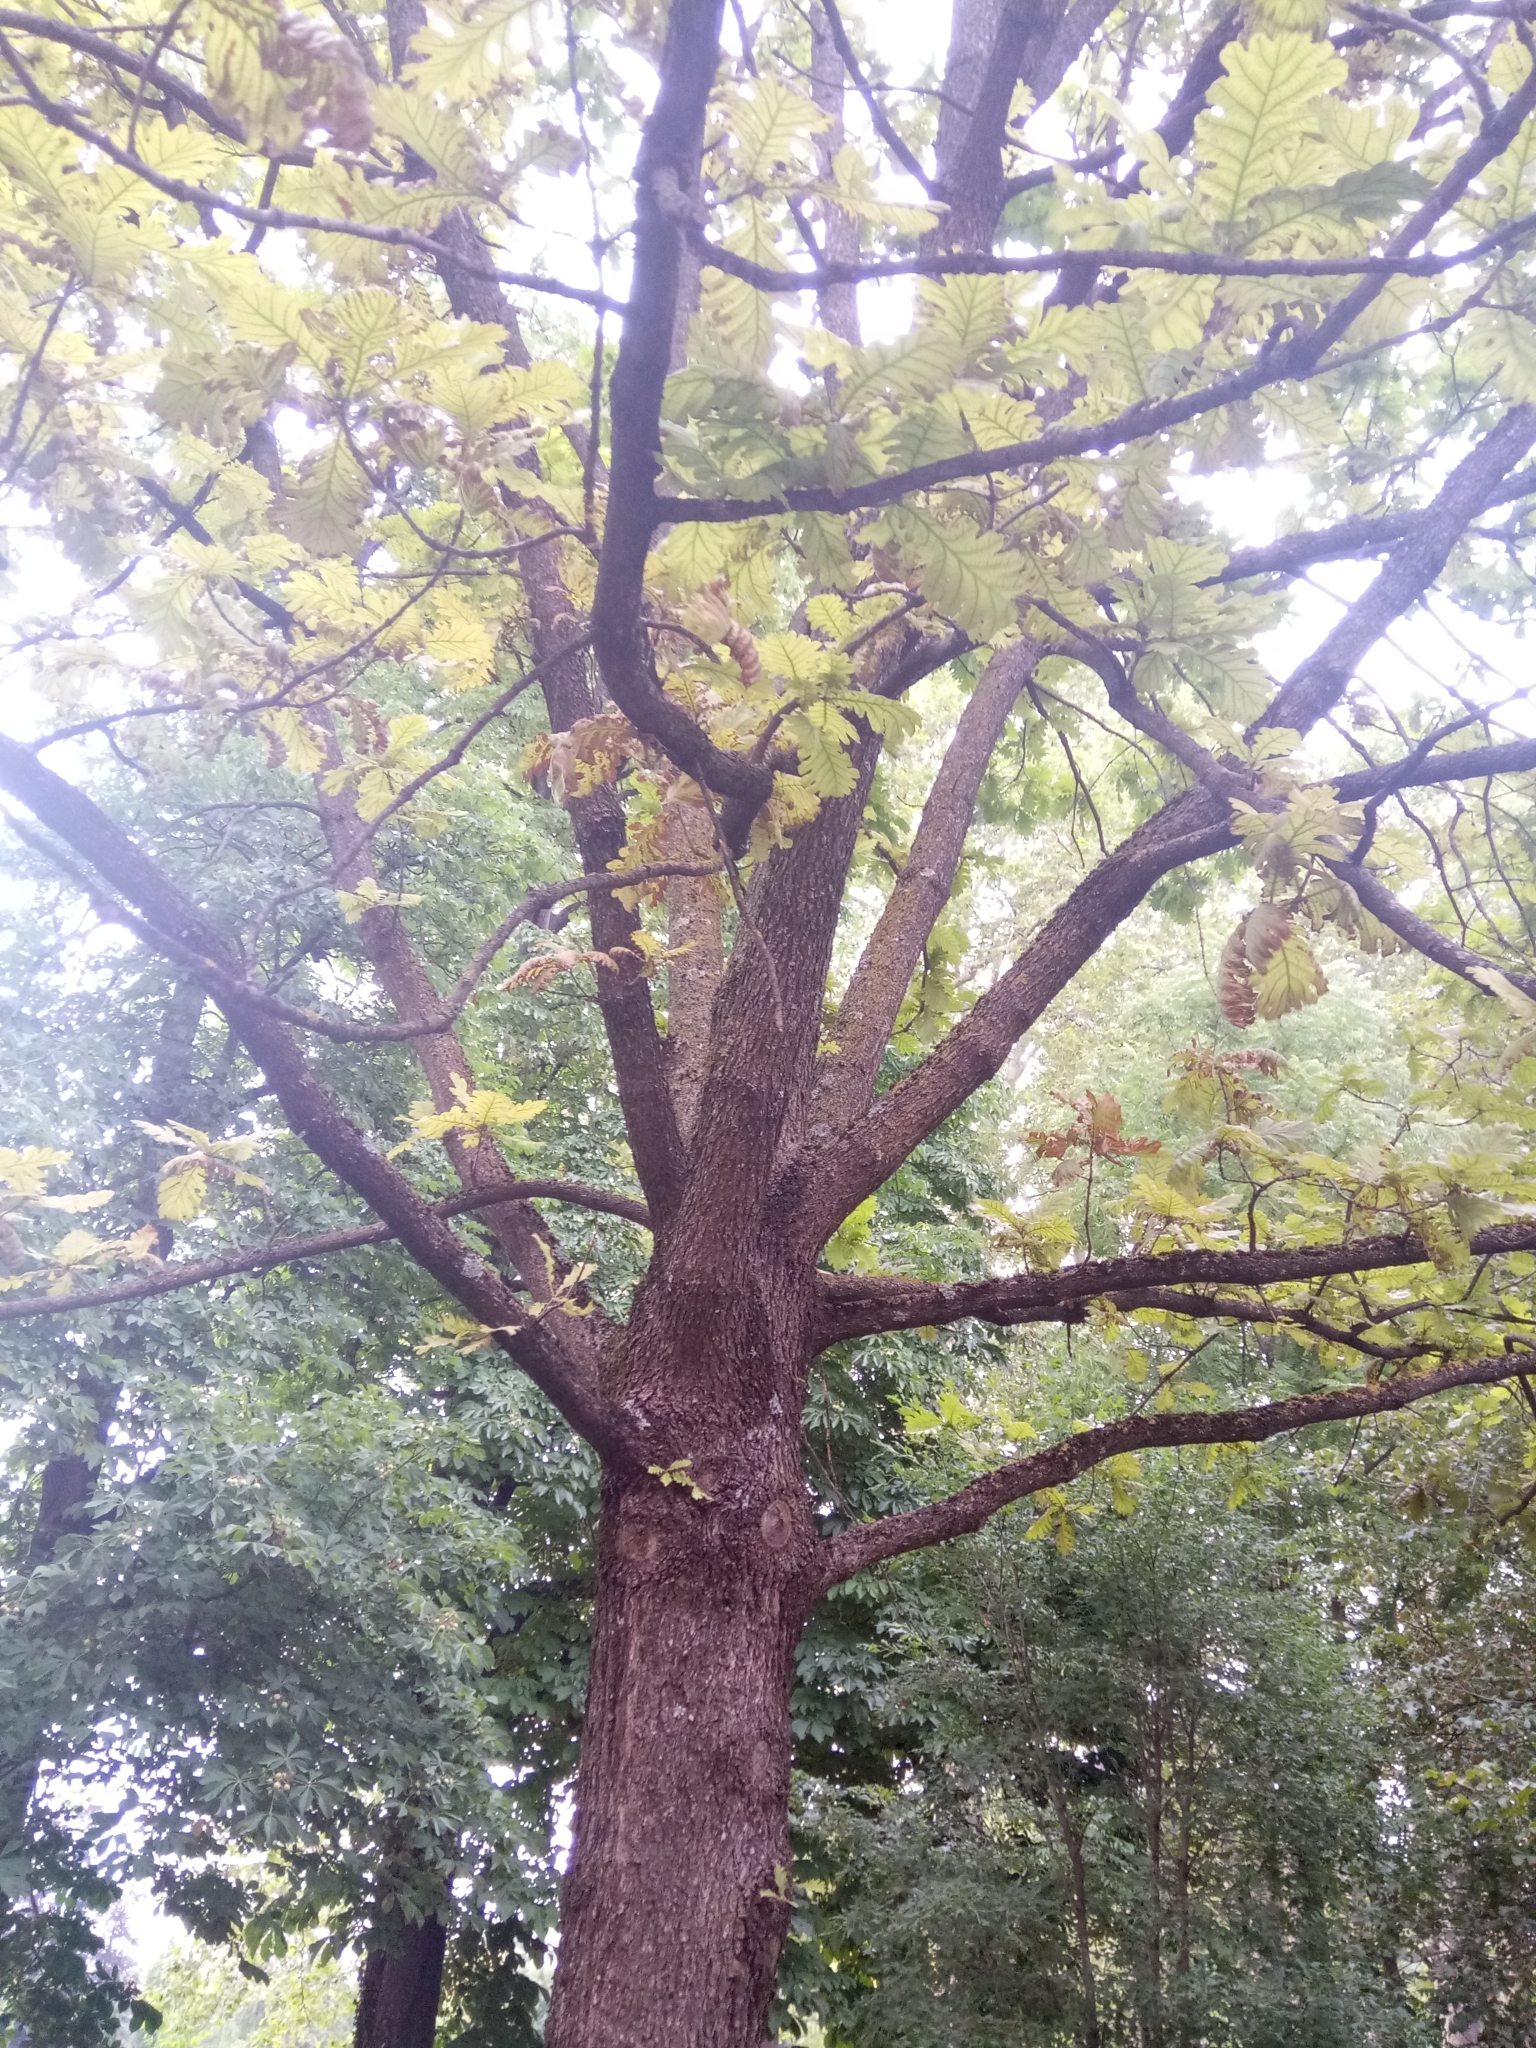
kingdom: Plantae
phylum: Tracheophyta
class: Magnoliopsida
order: Fagales
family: Fagaceae
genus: Quercus
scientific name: Quercus robur
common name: Pedunculate oak
